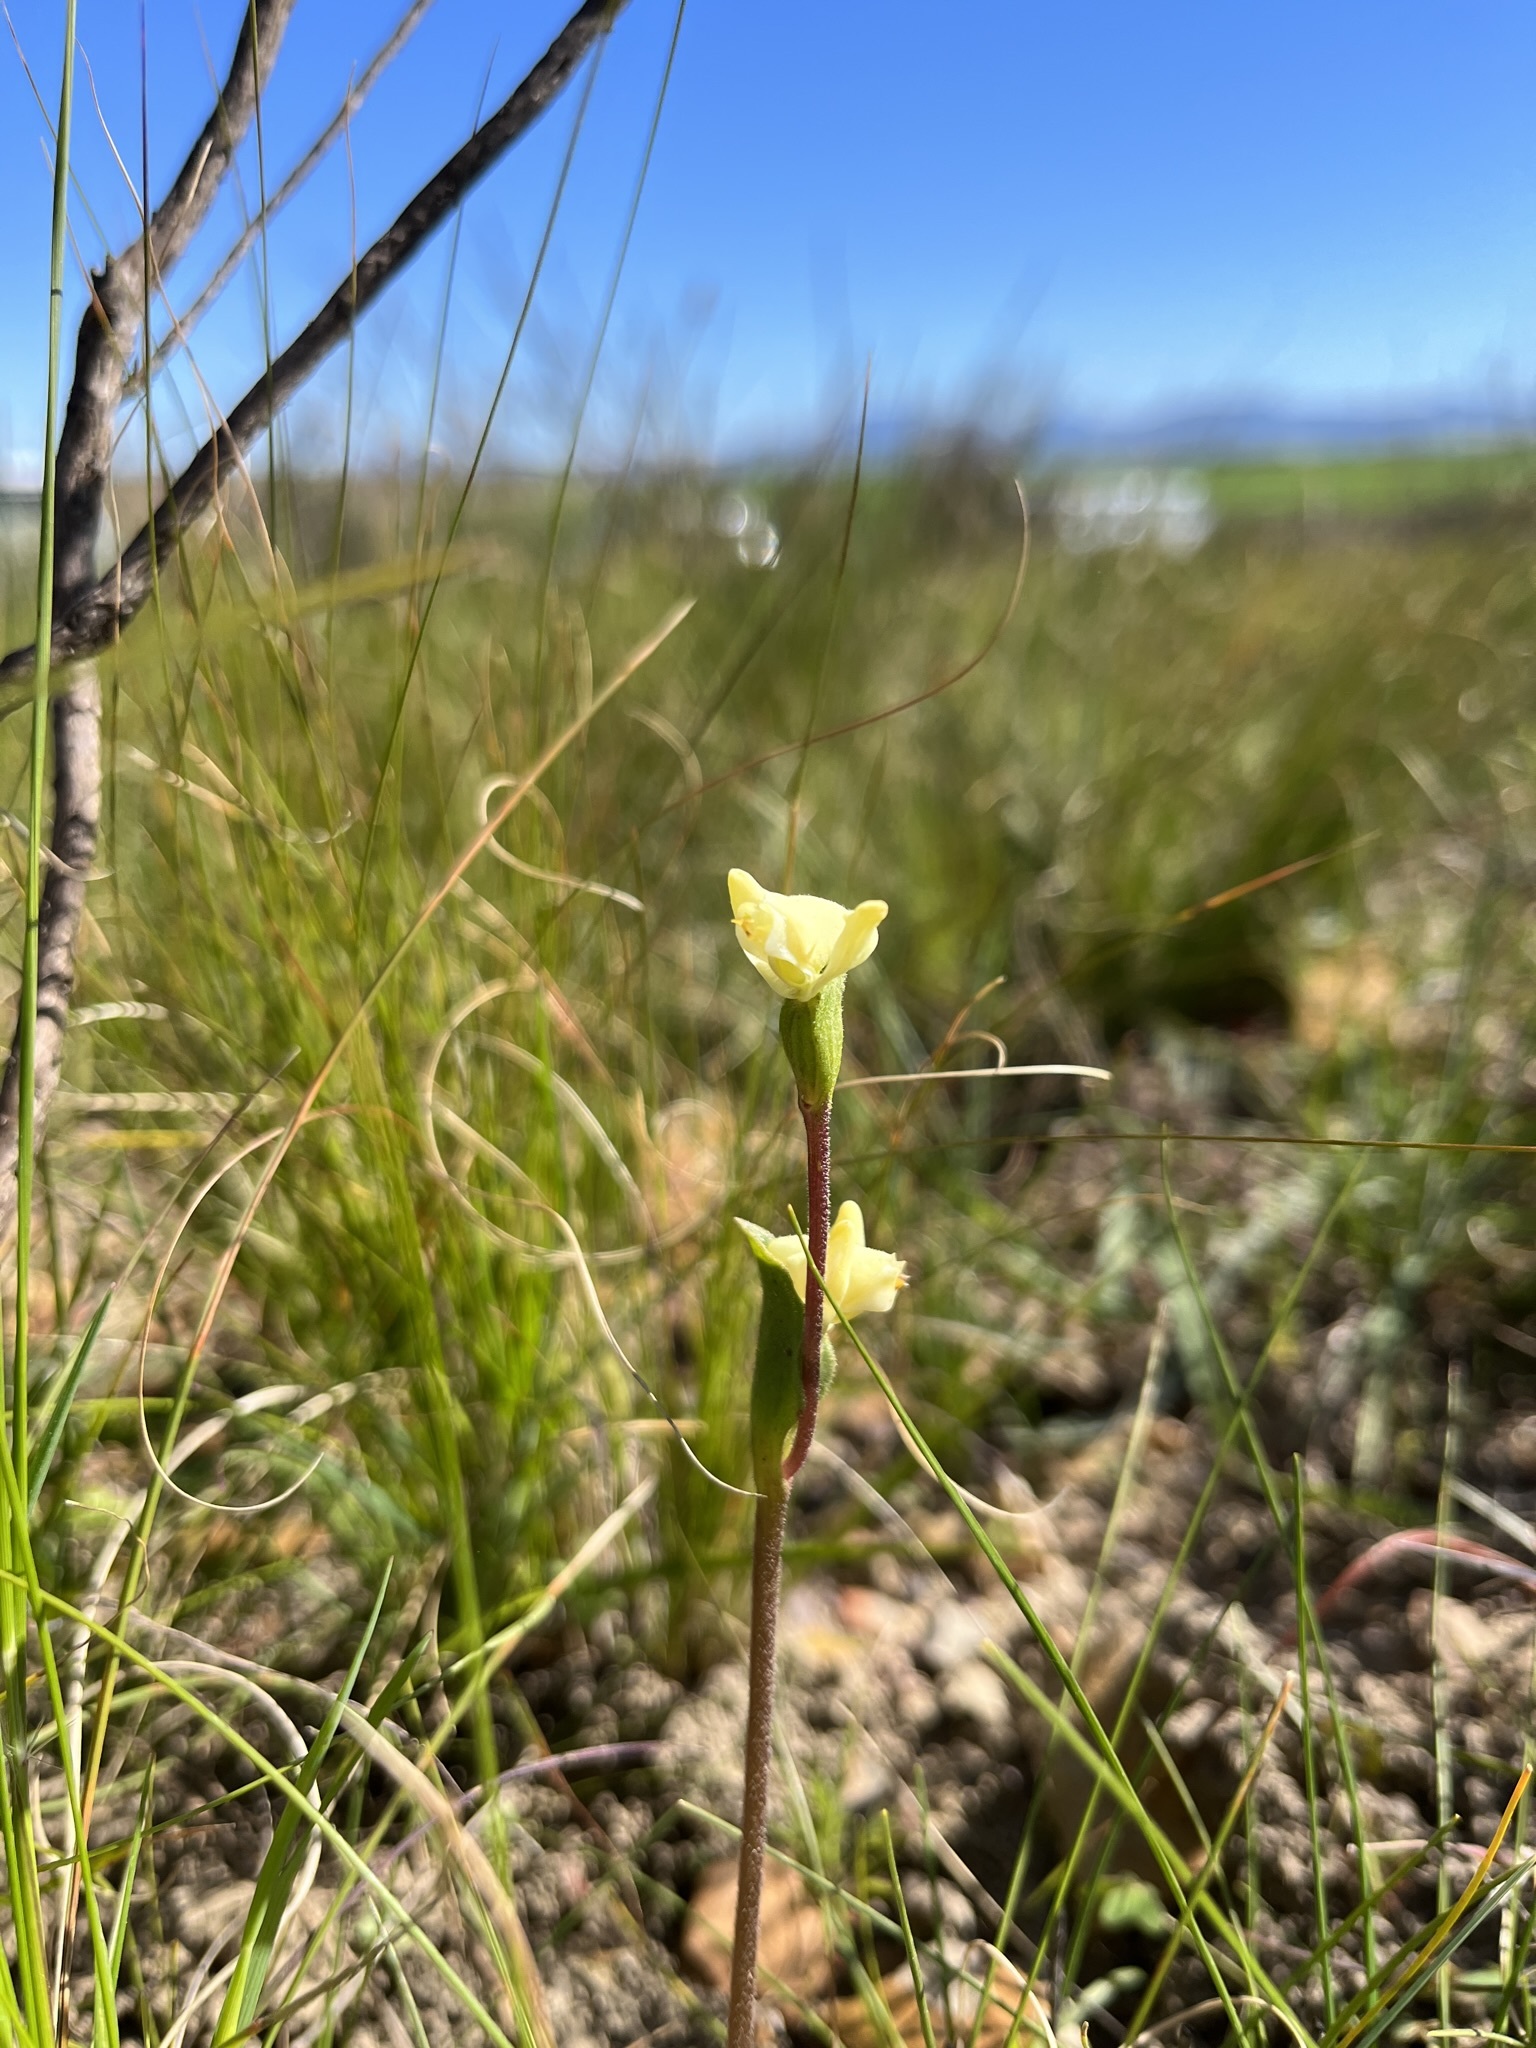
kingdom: Plantae
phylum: Tracheophyta
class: Liliopsida
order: Asparagales
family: Orchidaceae
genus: Disperis
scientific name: Disperis villosa
